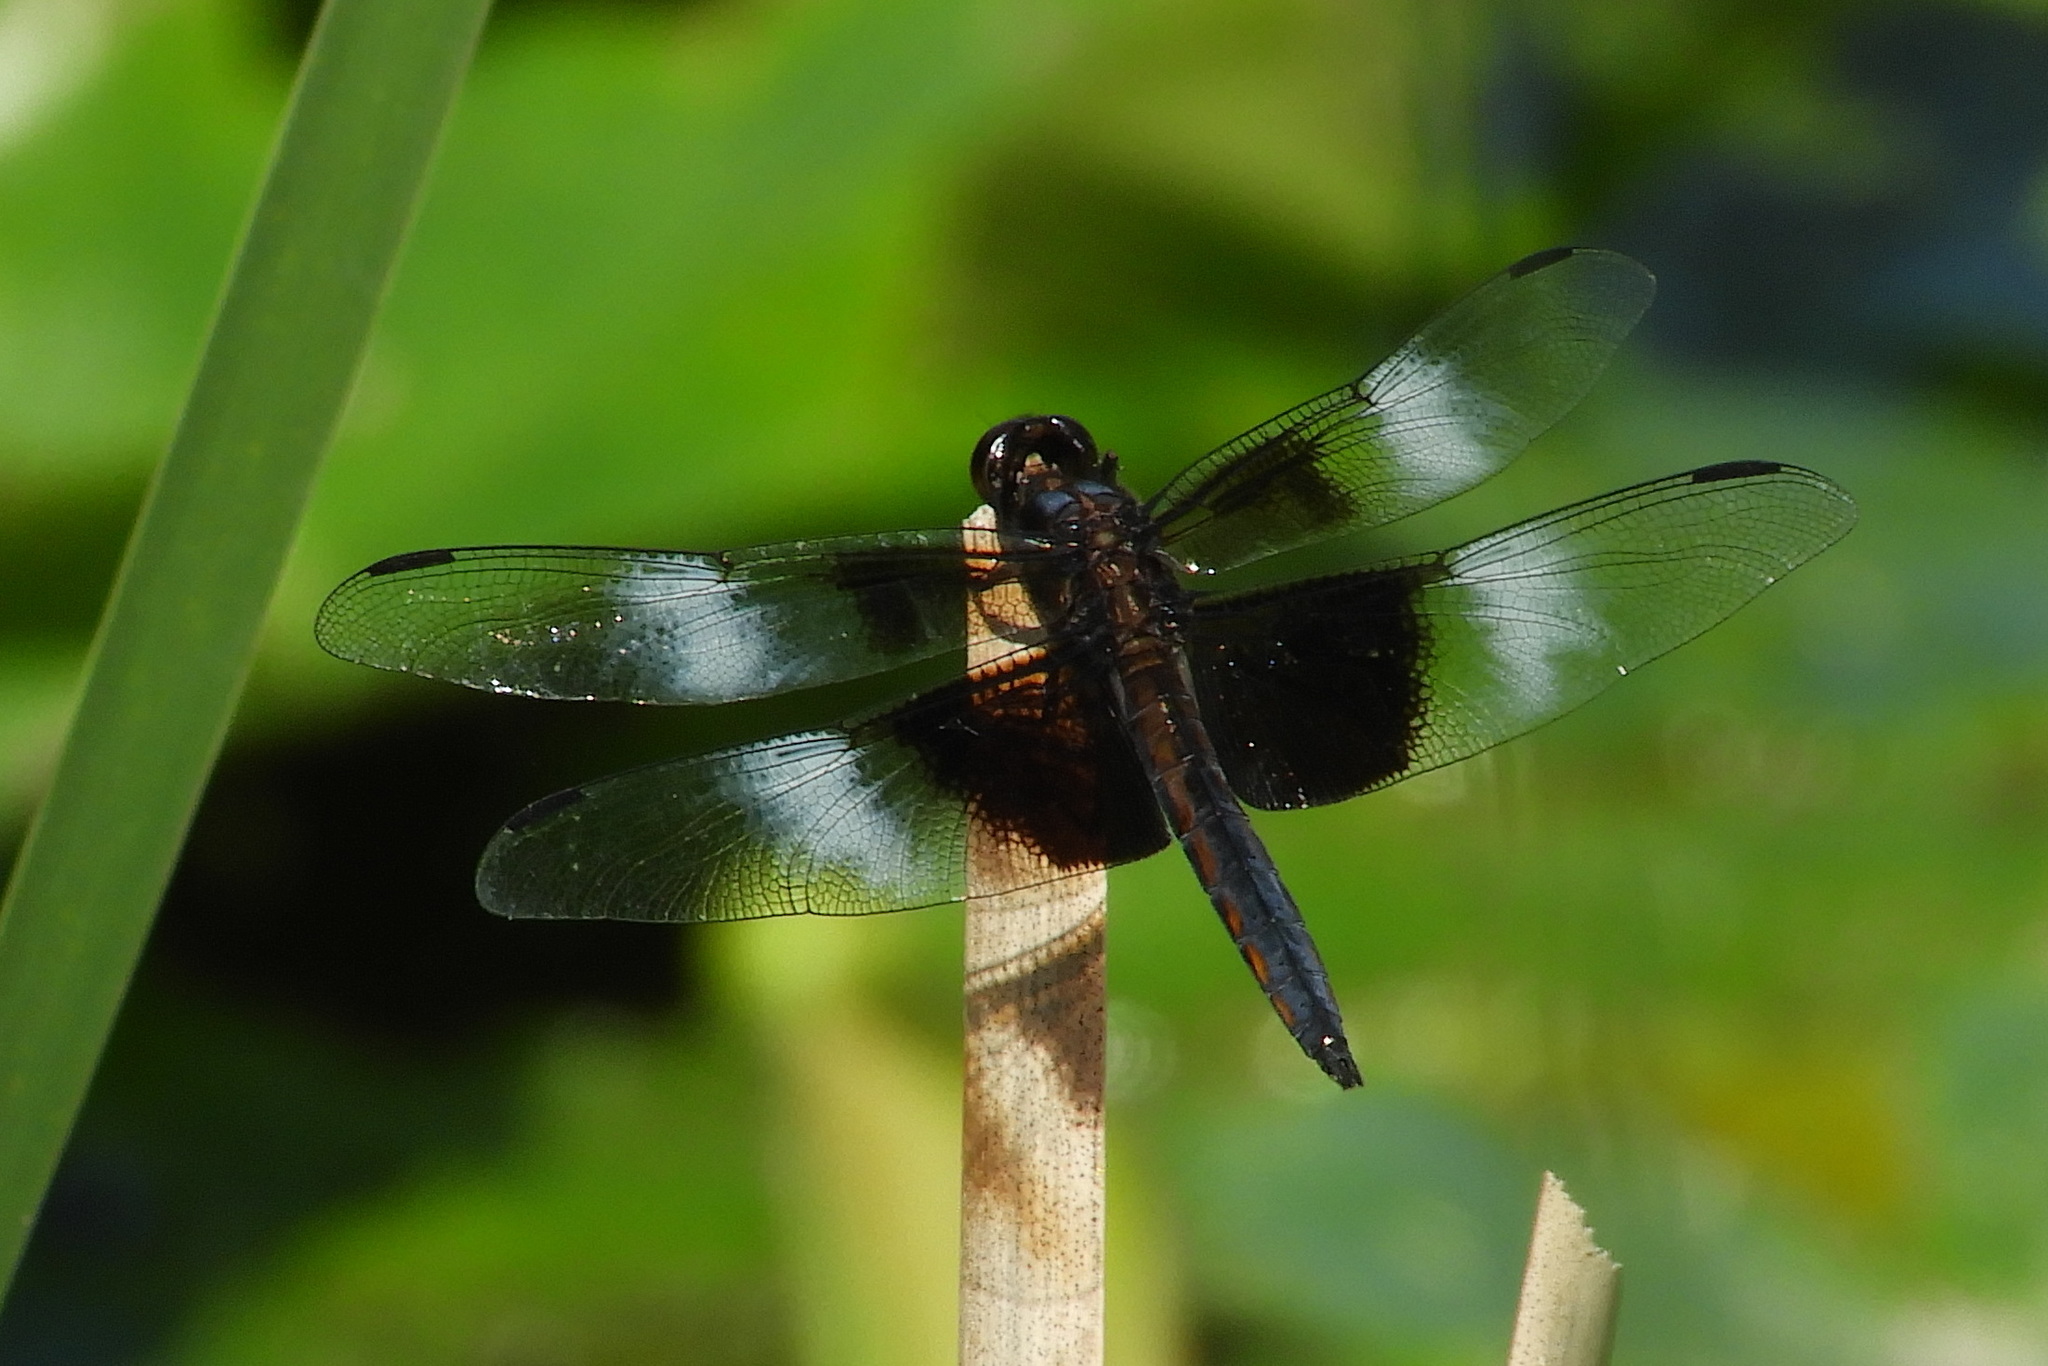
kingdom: Animalia
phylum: Arthropoda
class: Insecta
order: Odonata
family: Libellulidae
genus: Libellula
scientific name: Libellula luctuosa
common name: Widow skimmer
